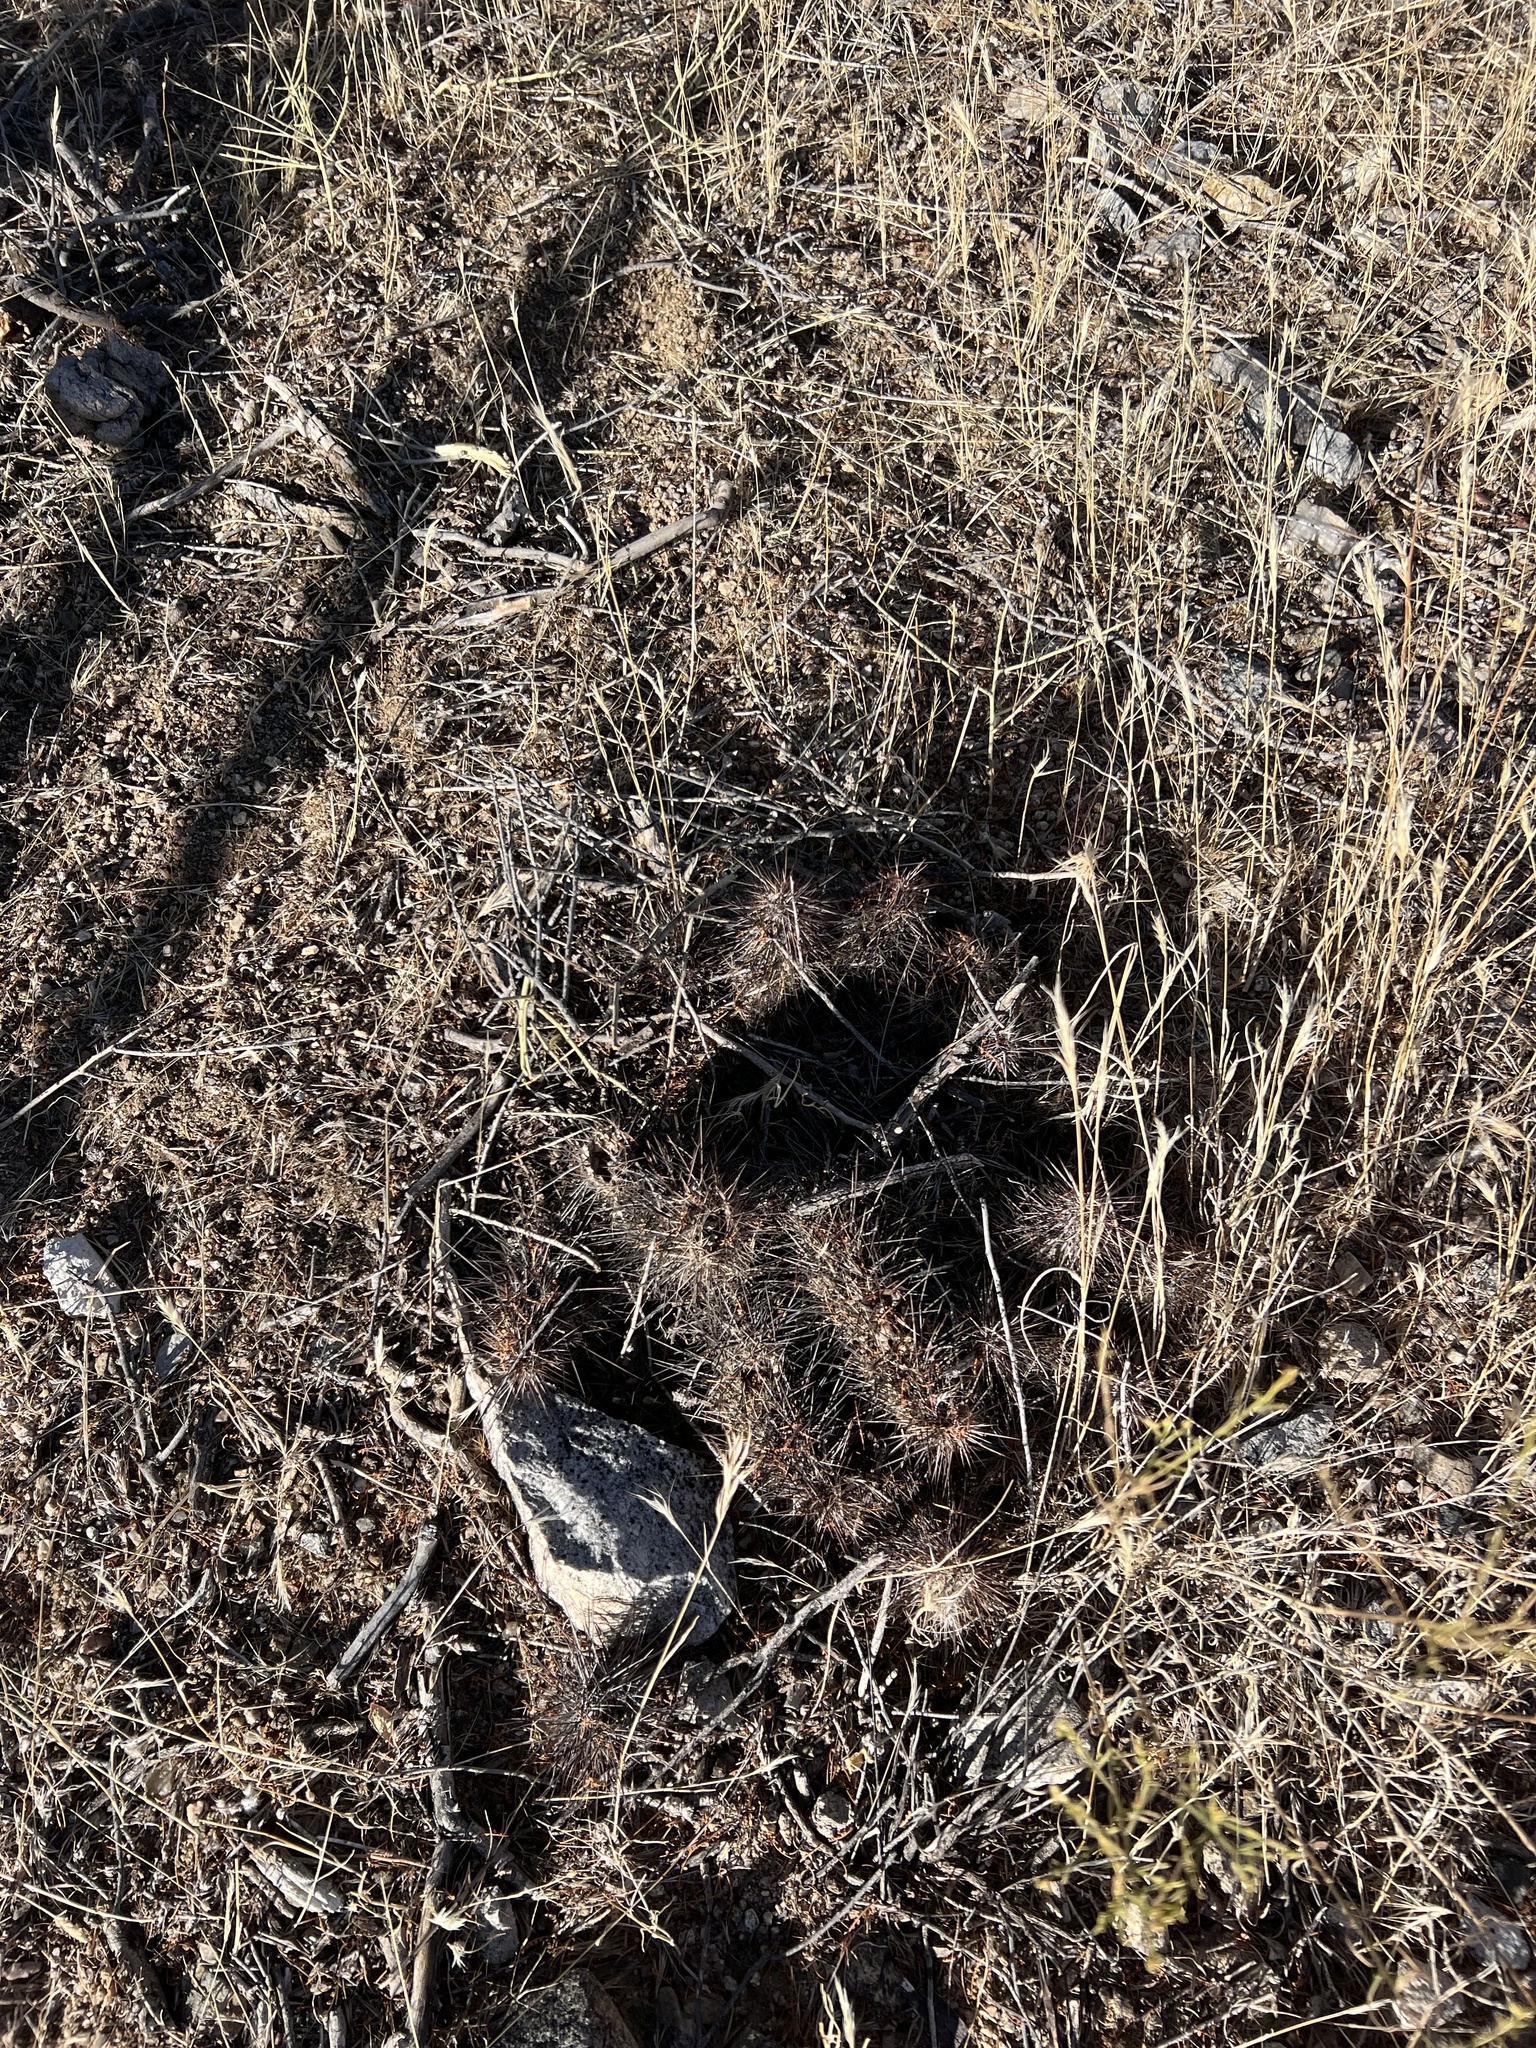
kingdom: Plantae
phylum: Tracheophyta
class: Magnoliopsida
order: Caryophyllales
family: Cactaceae
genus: Echinocereus
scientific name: Echinocereus engelmannii
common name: Engelmann's hedgehog cactus
